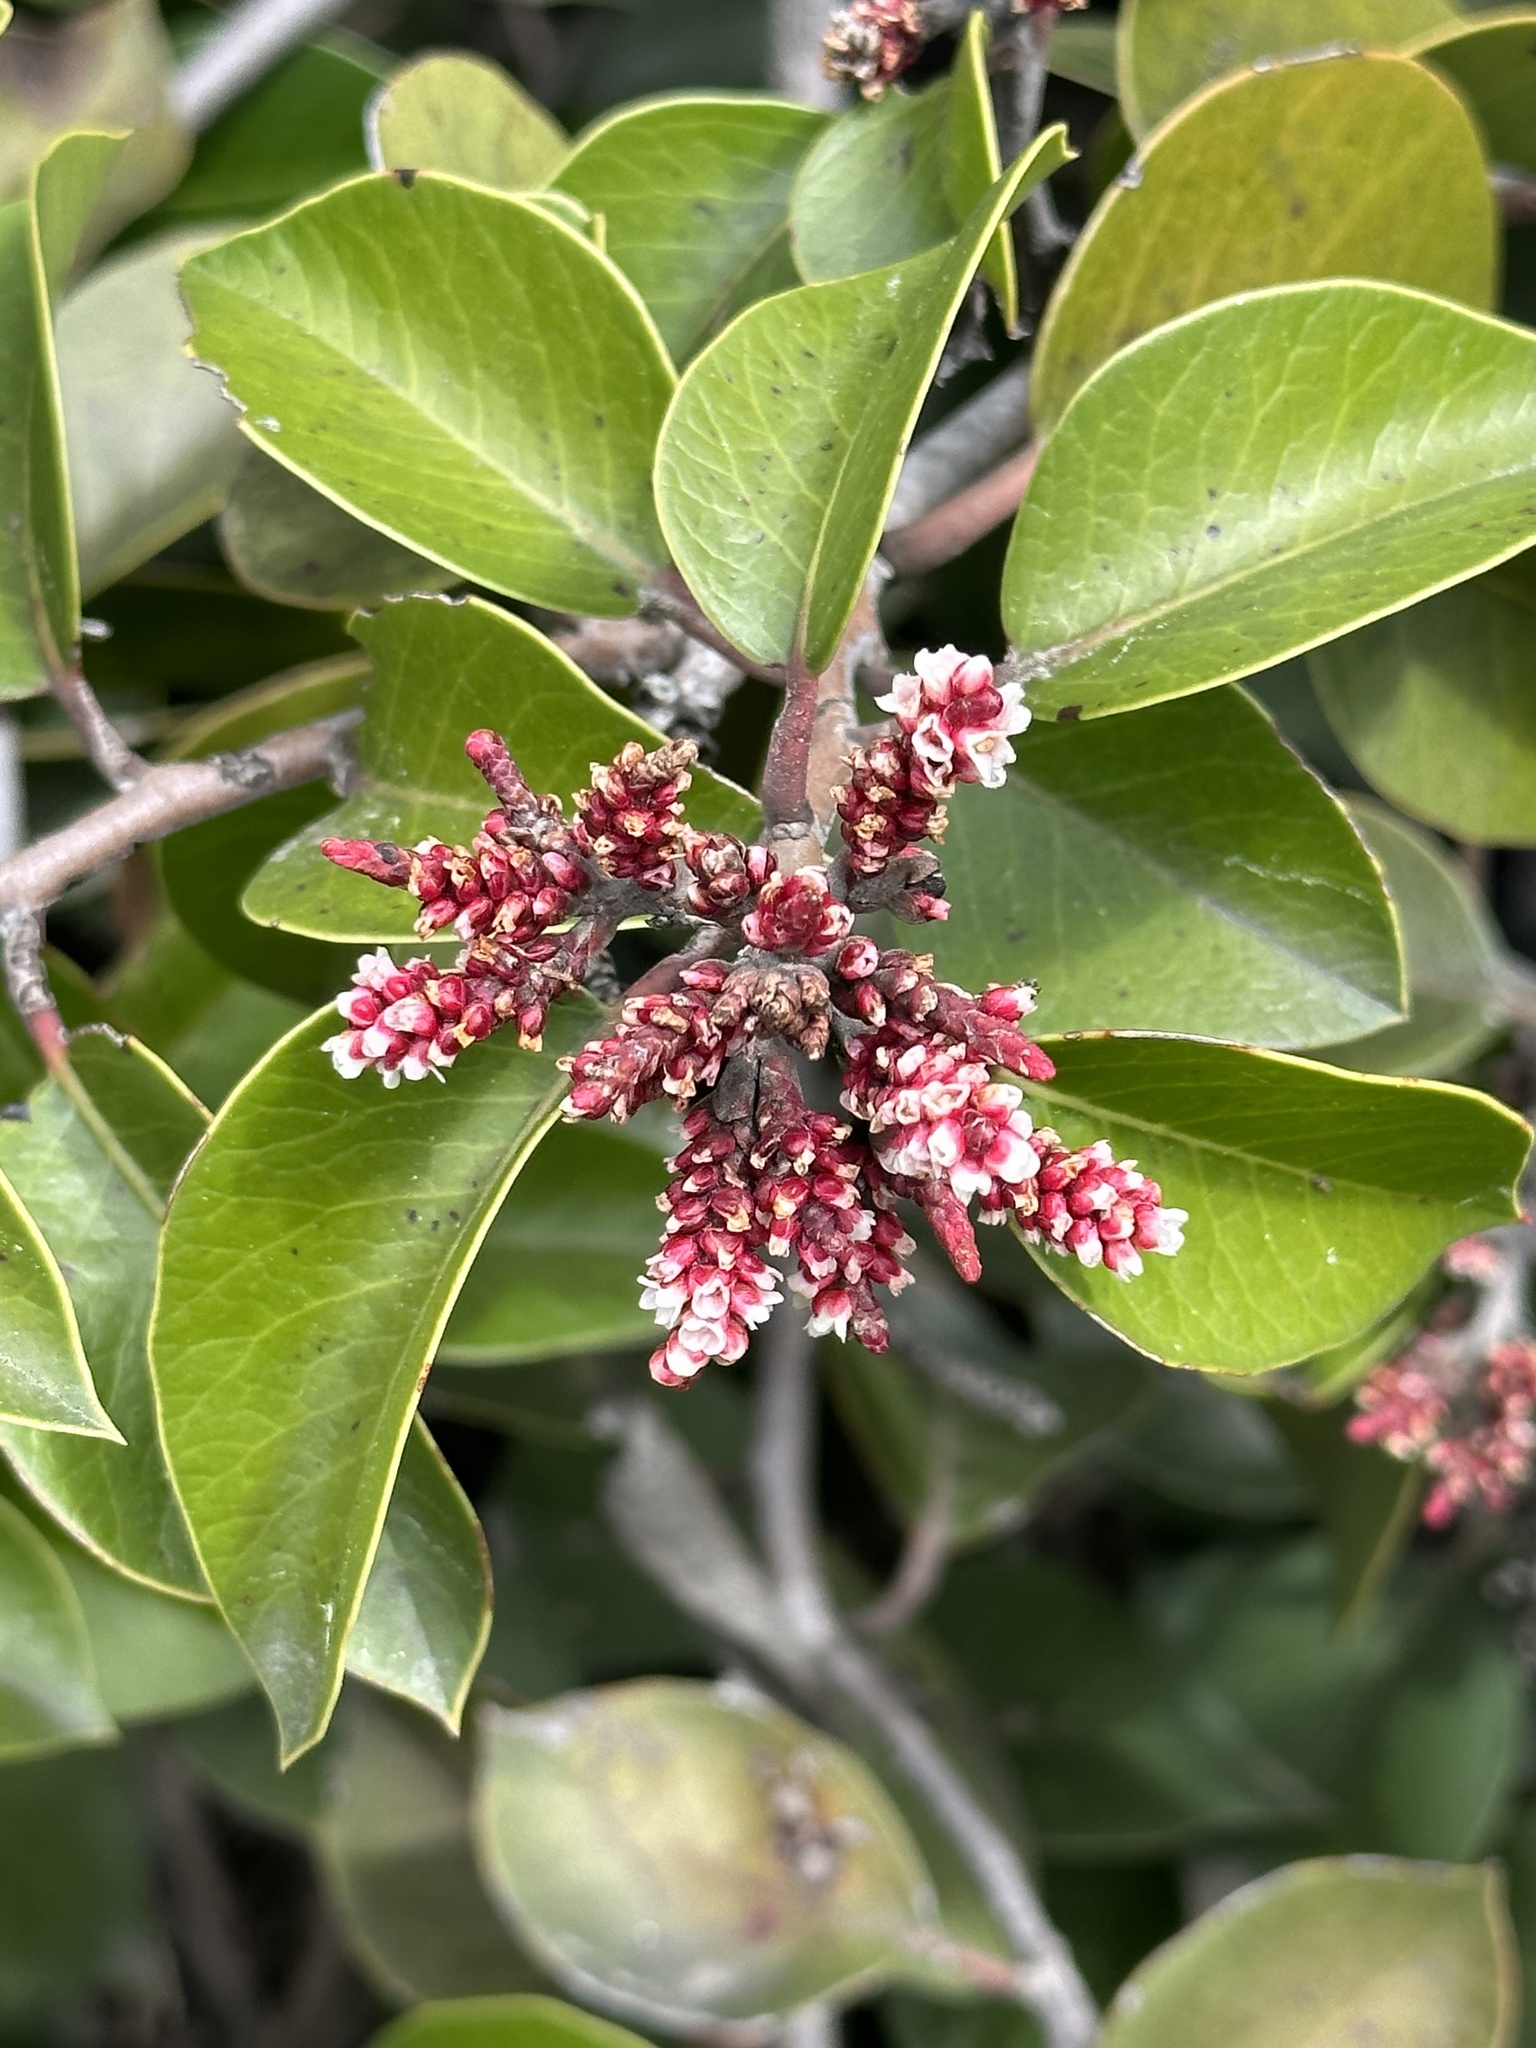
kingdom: Plantae
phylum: Tracheophyta
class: Magnoliopsida
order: Sapindales
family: Anacardiaceae
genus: Rhus
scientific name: Rhus ovata
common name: Sugar sumac
